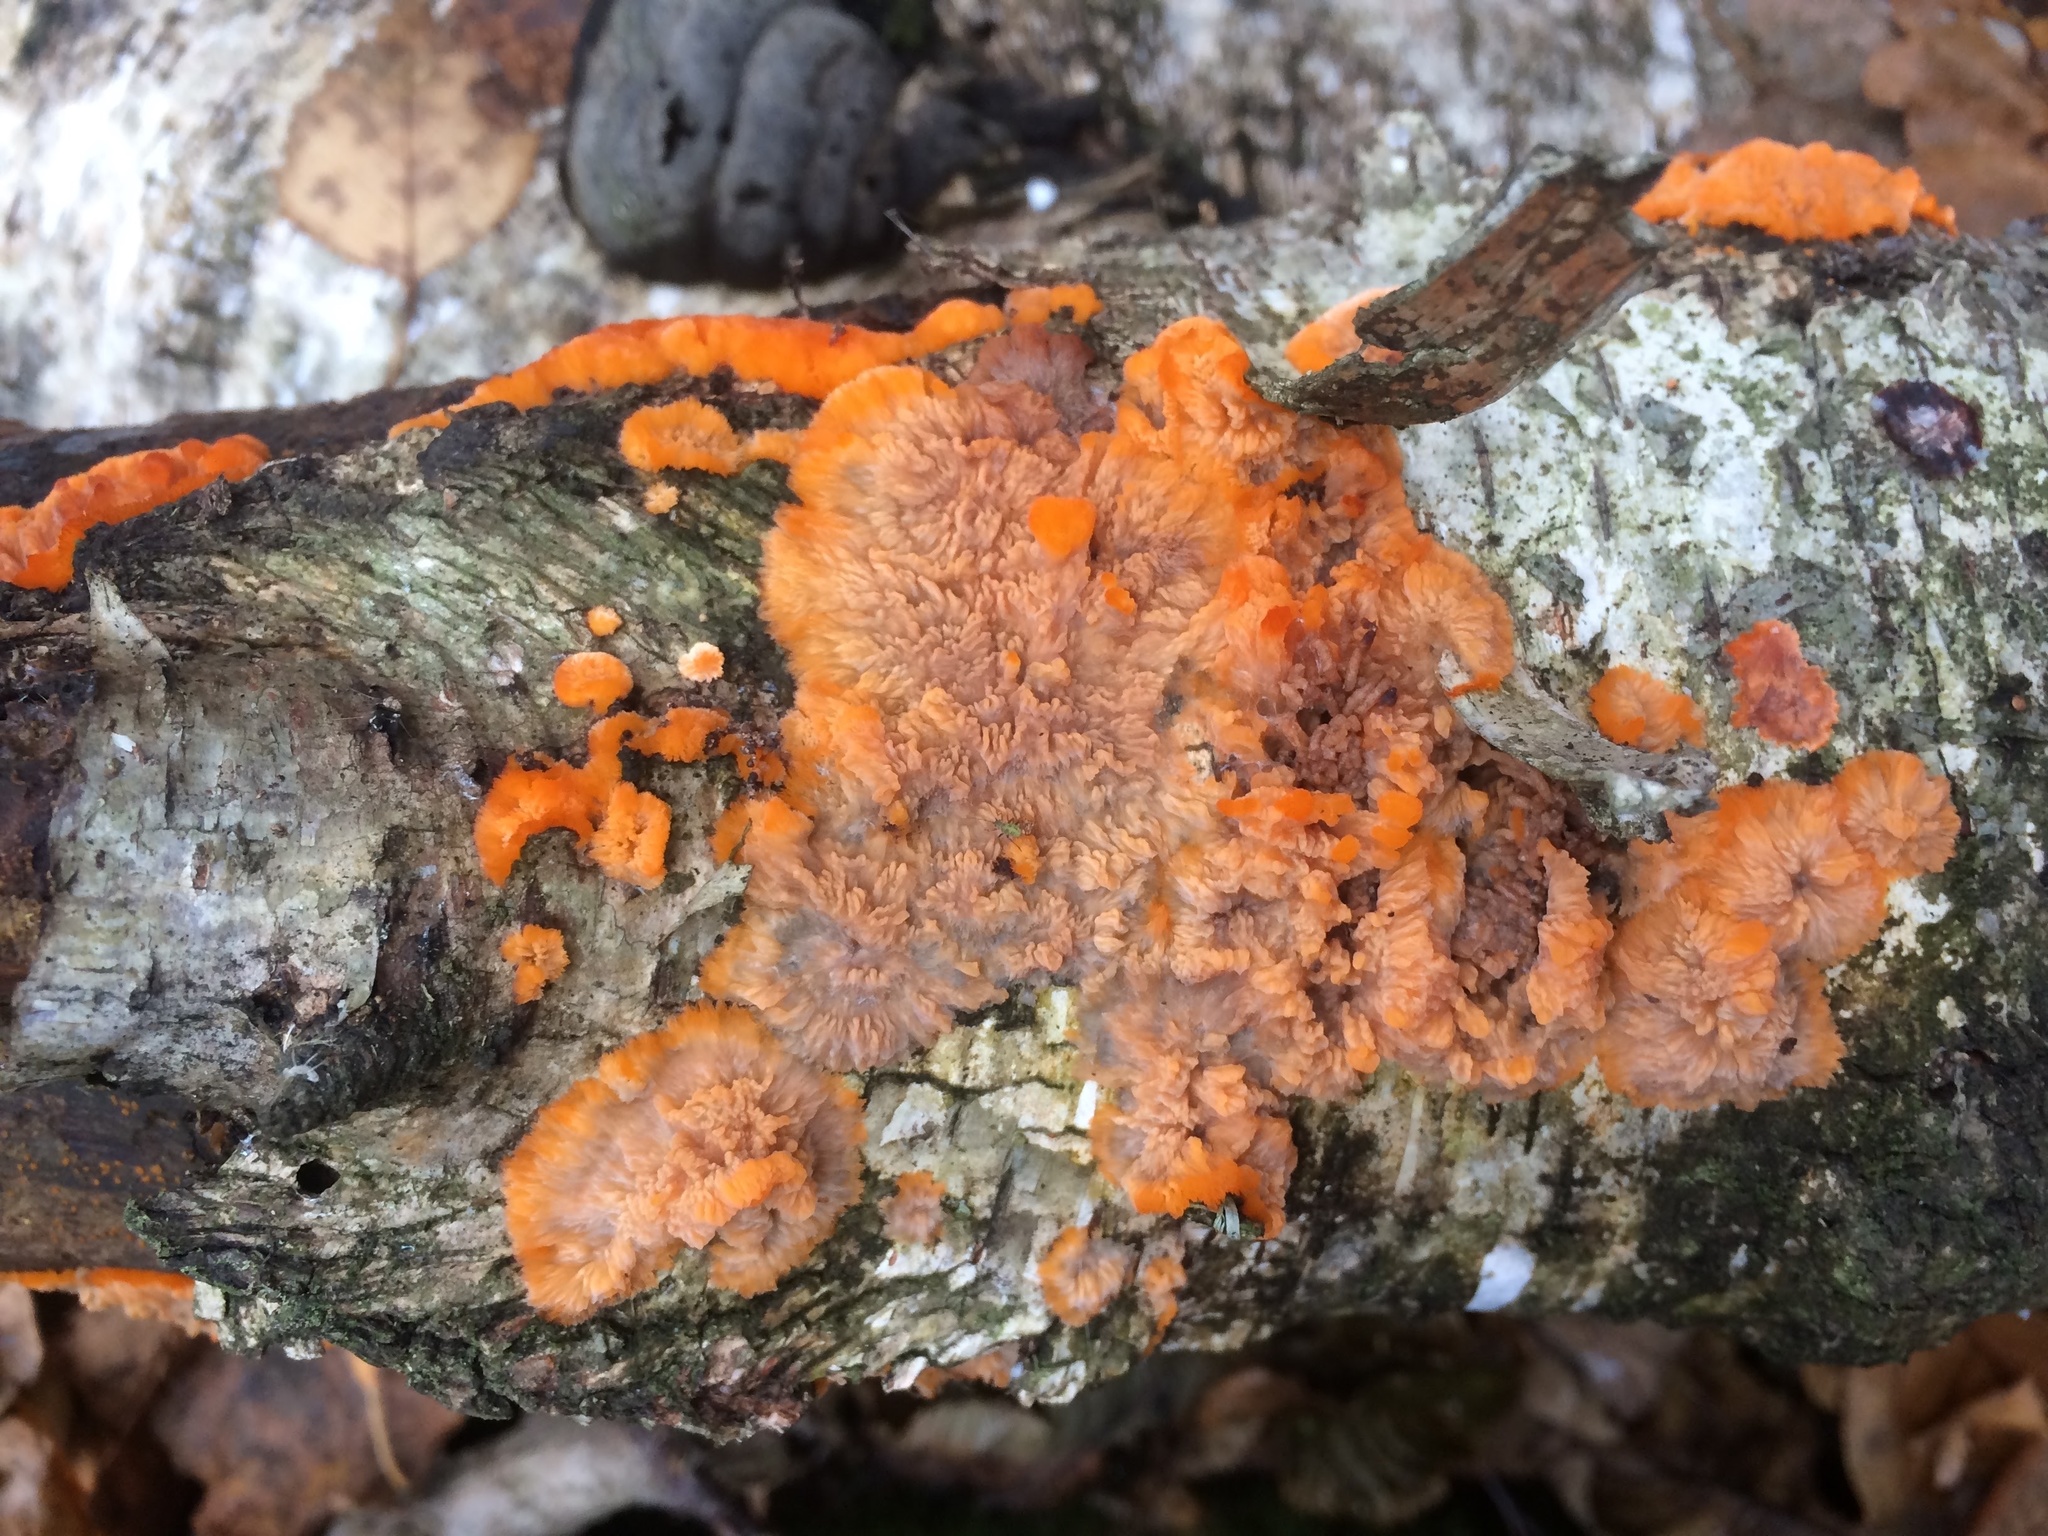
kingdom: Fungi
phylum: Basidiomycota
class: Agaricomycetes
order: Polyporales
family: Meruliaceae
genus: Phlebia
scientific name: Phlebia radiata
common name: Wrinkled crust
